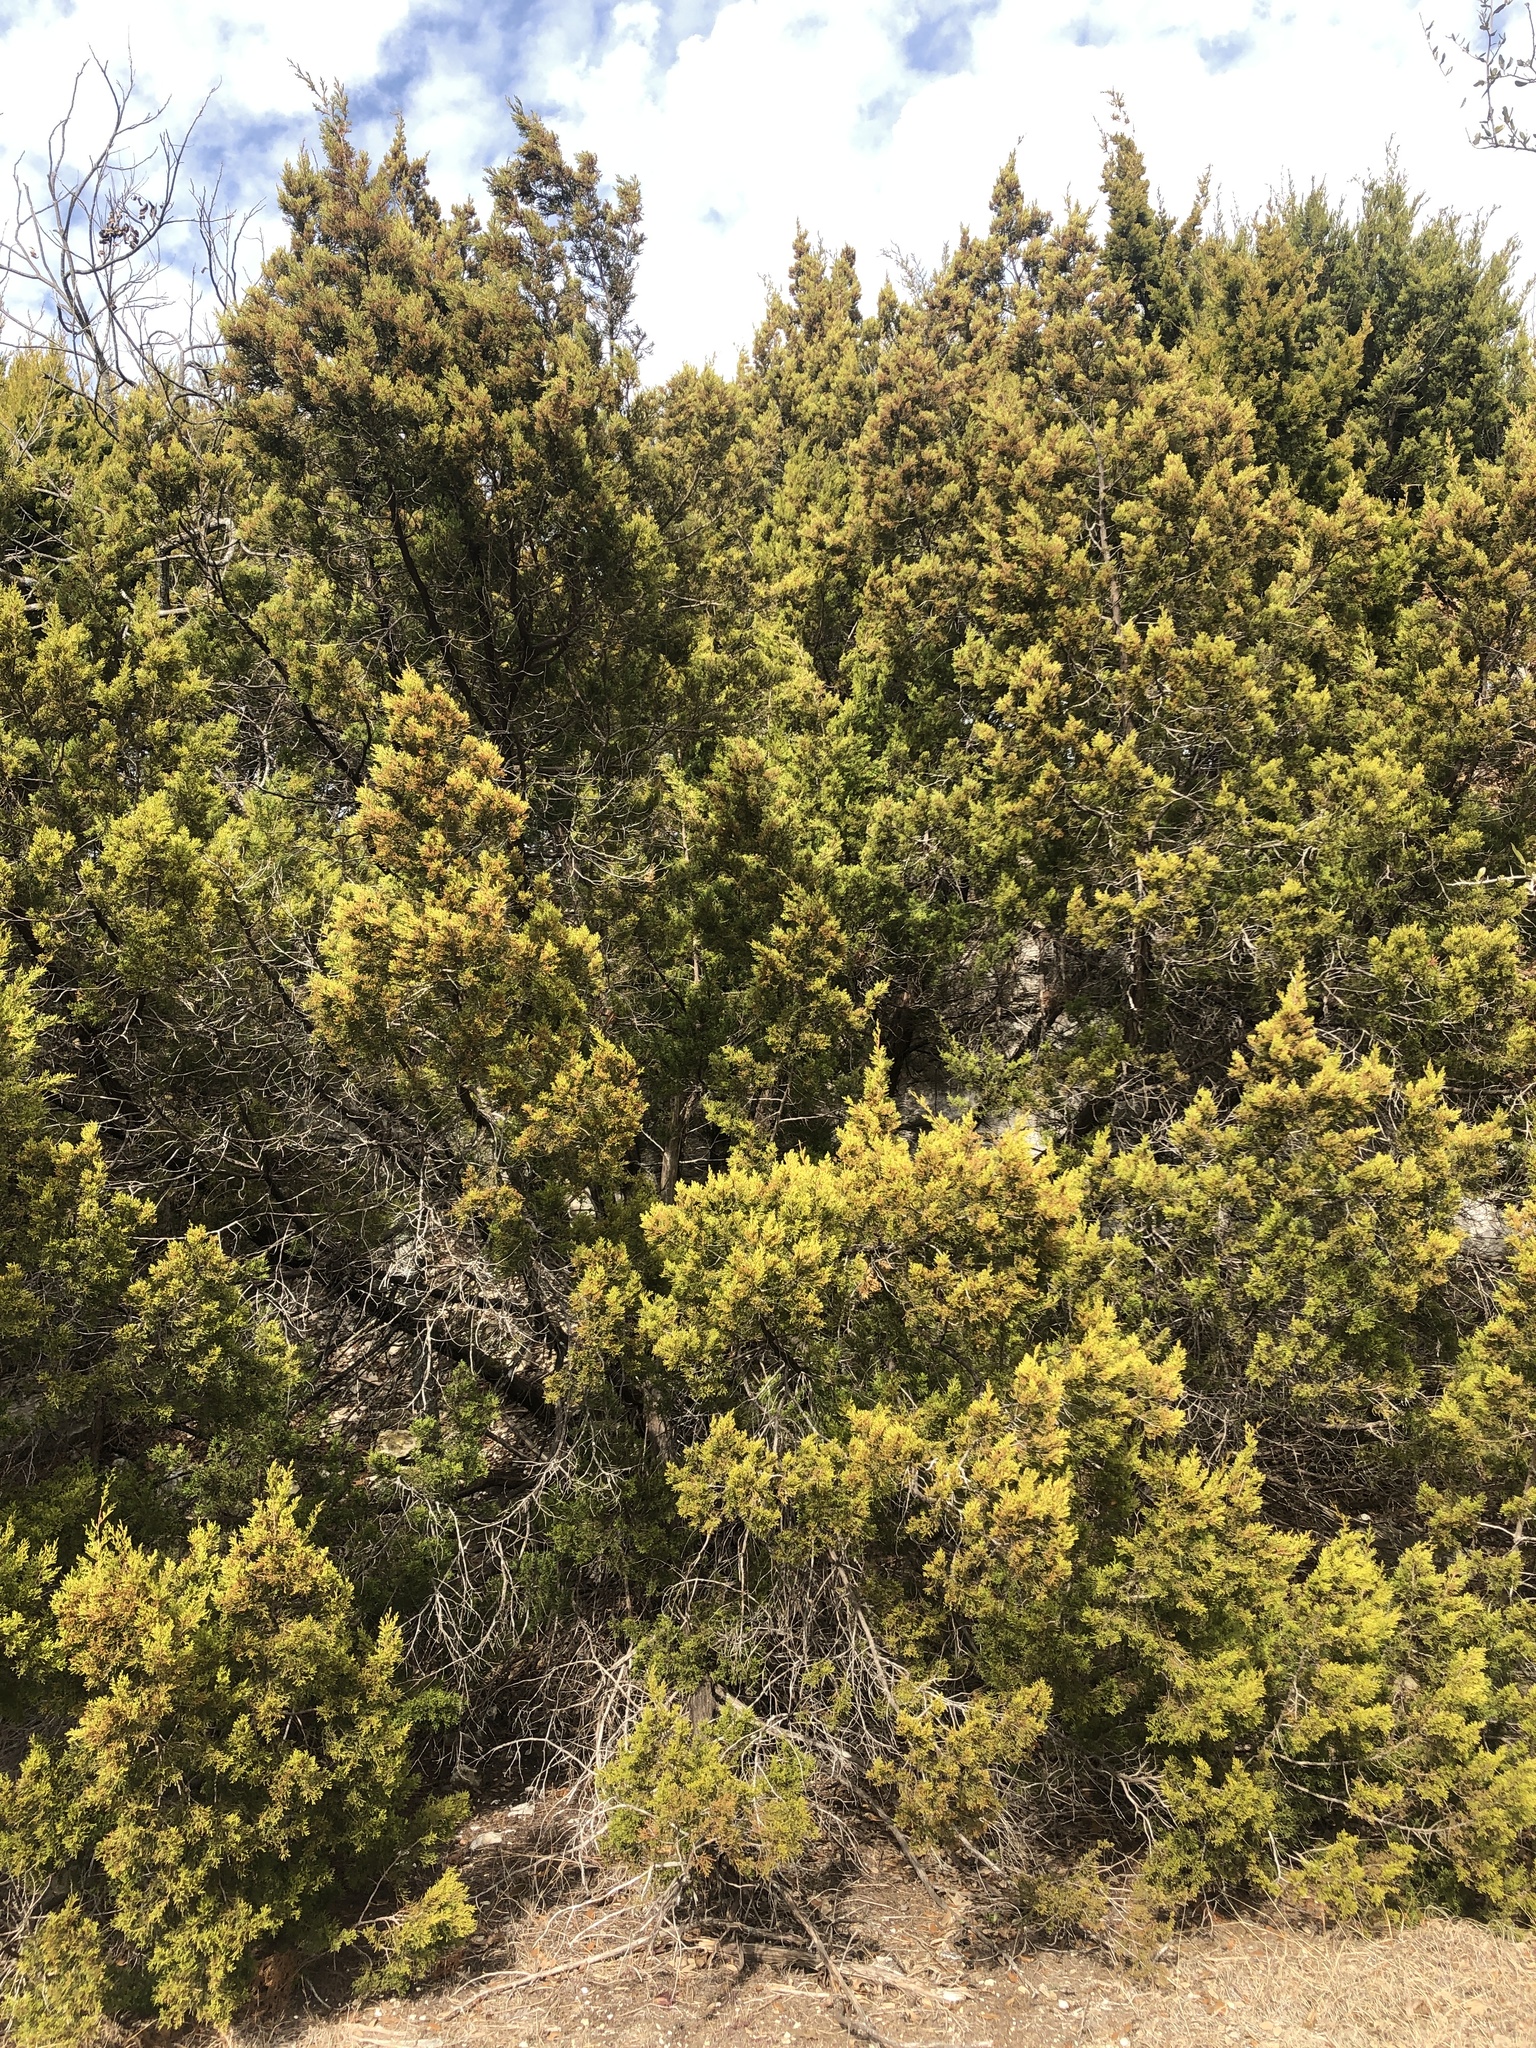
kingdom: Plantae
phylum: Tracheophyta
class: Pinopsida
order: Pinales
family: Cupressaceae
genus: Juniperus
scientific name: Juniperus ashei
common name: Mexican juniper
